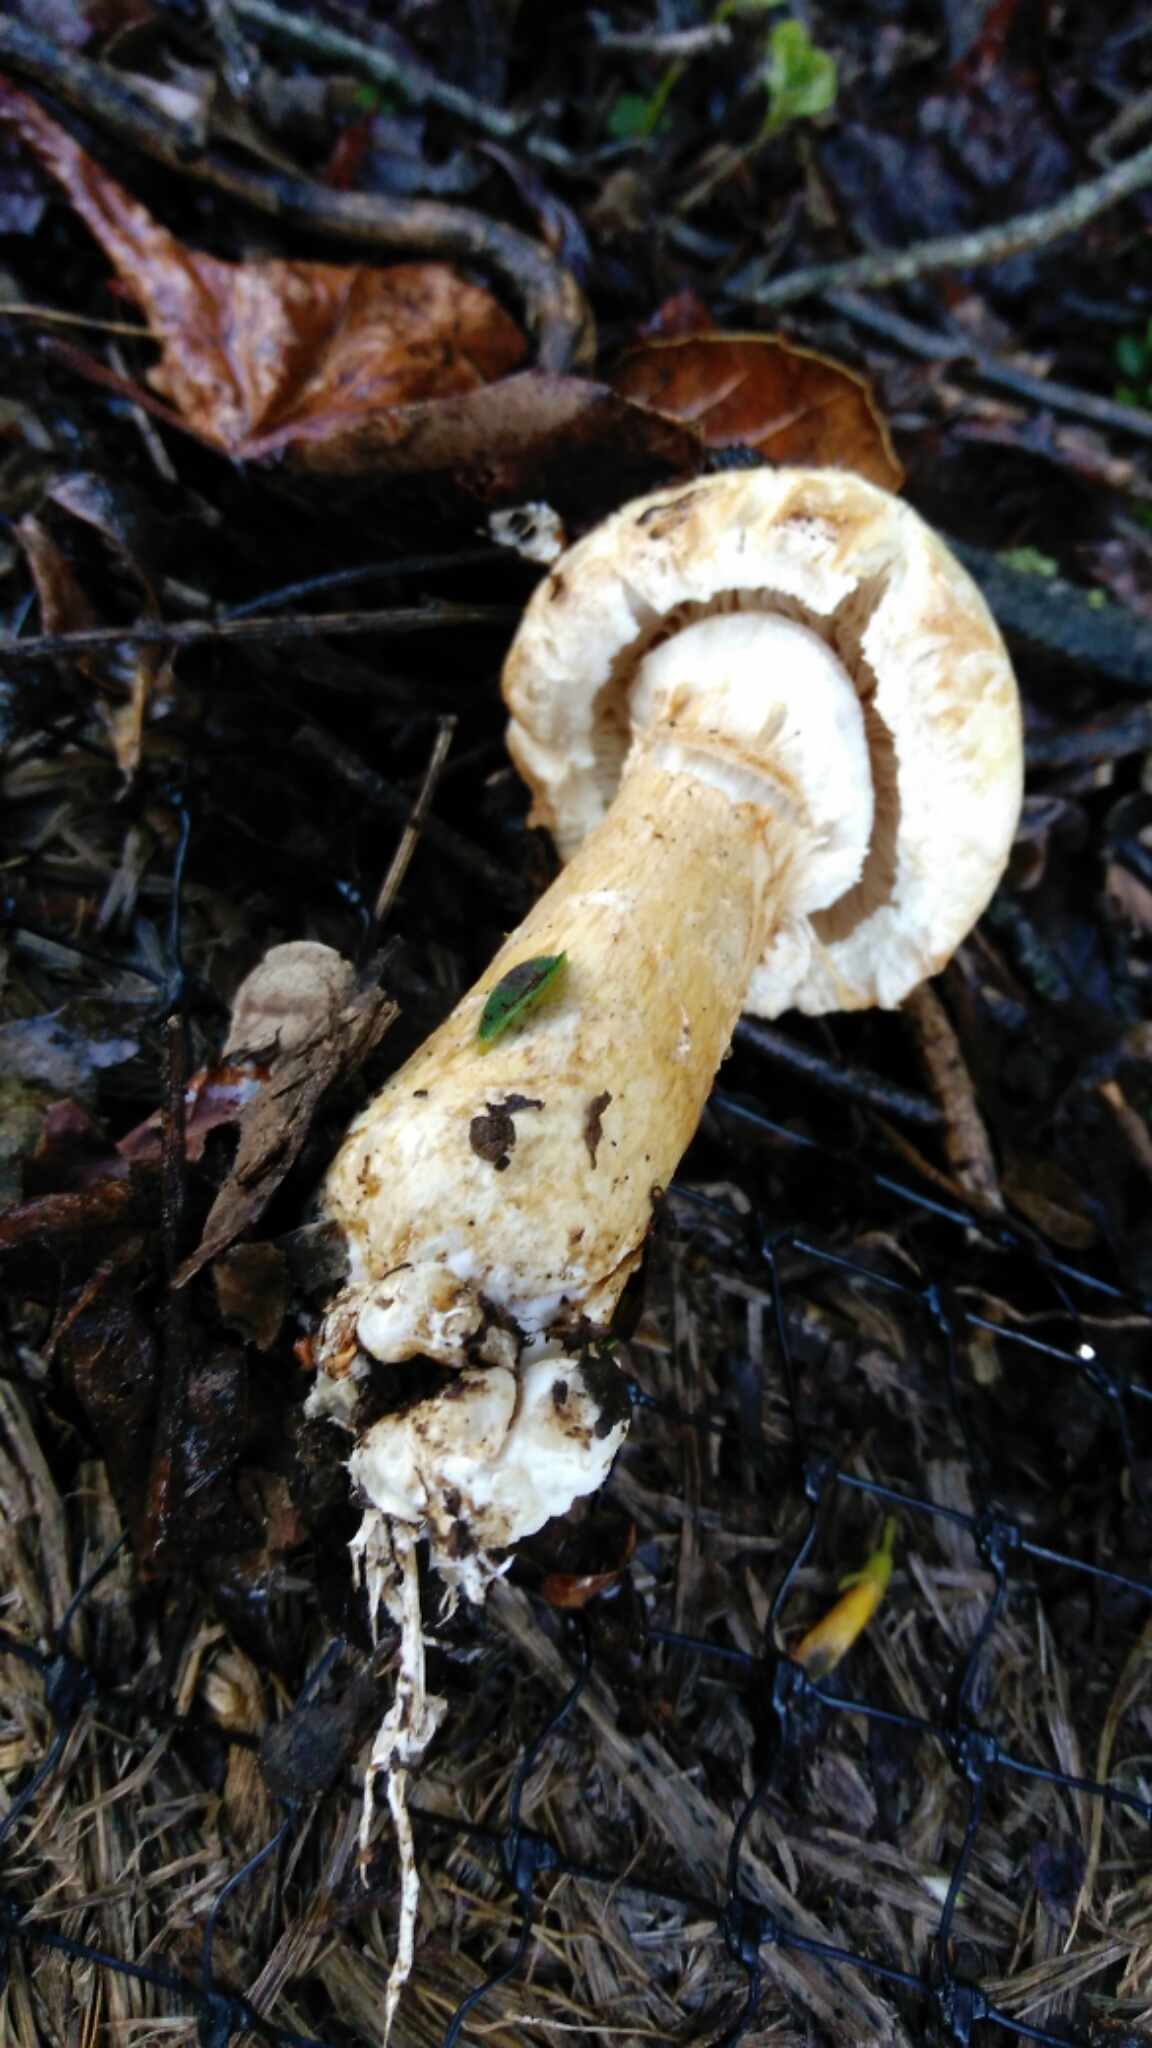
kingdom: Fungi
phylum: Basidiomycota
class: Agaricomycetes
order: Agaricales
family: Strophariaceae
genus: Agrocybe
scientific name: Agrocybe praecox
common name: Spring fieldcap
